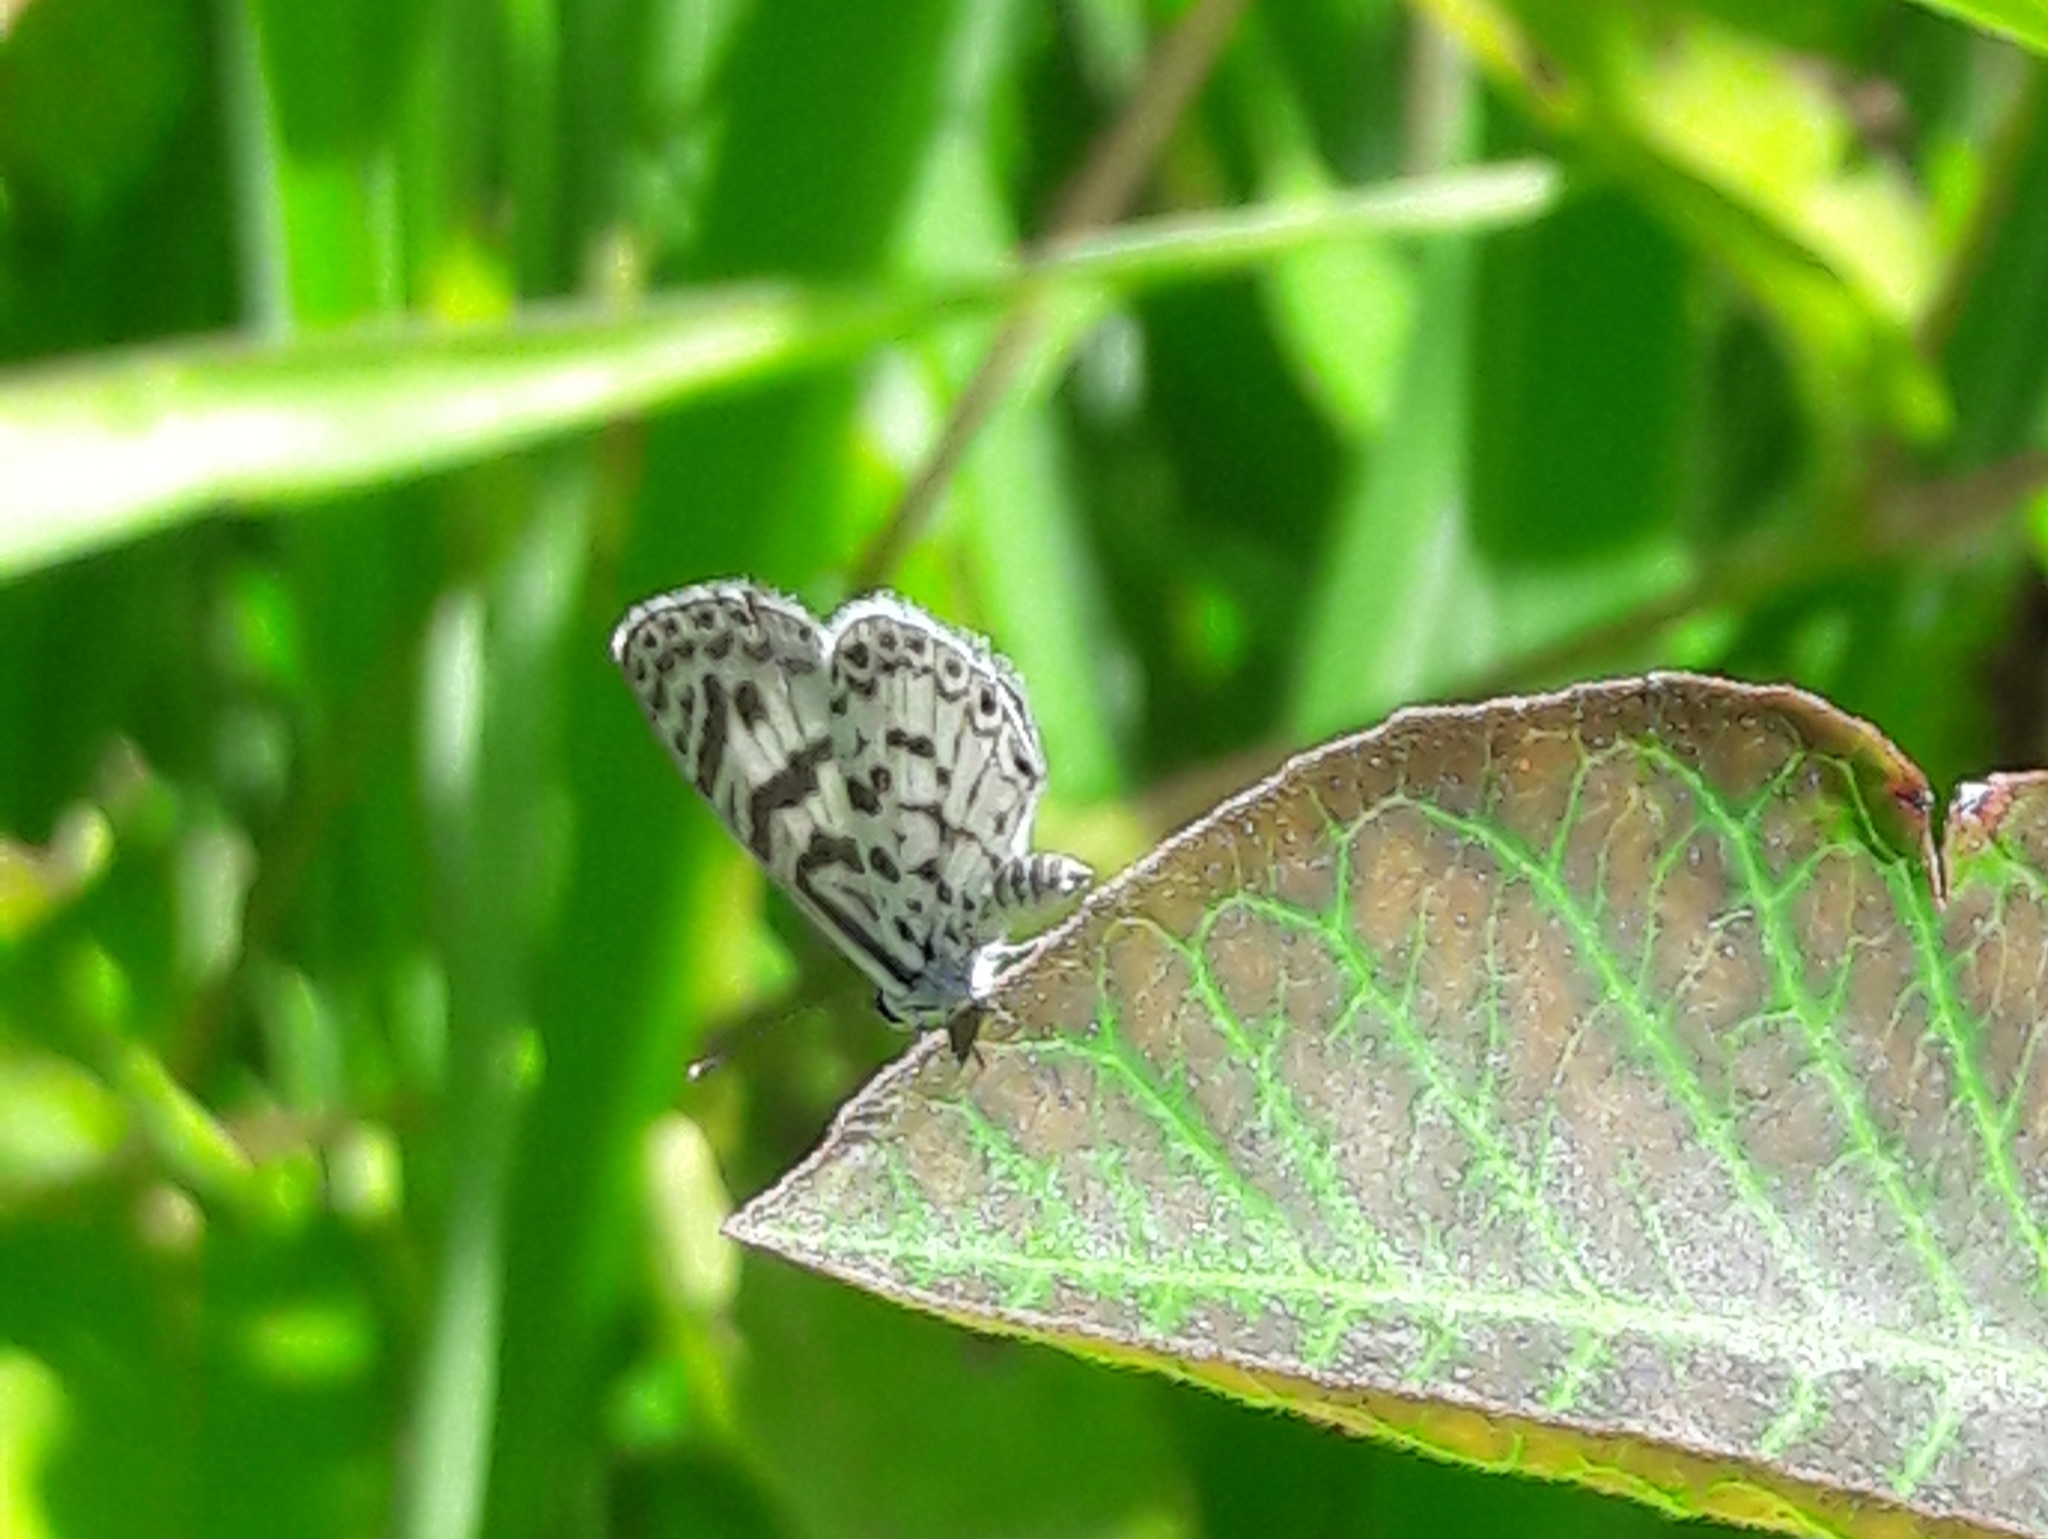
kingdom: Animalia
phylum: Arthropoda
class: Insecta
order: Lepidoptera
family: Lycaenidae
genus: Leptotes
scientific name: Leptotes cassius
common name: Cassius blue
